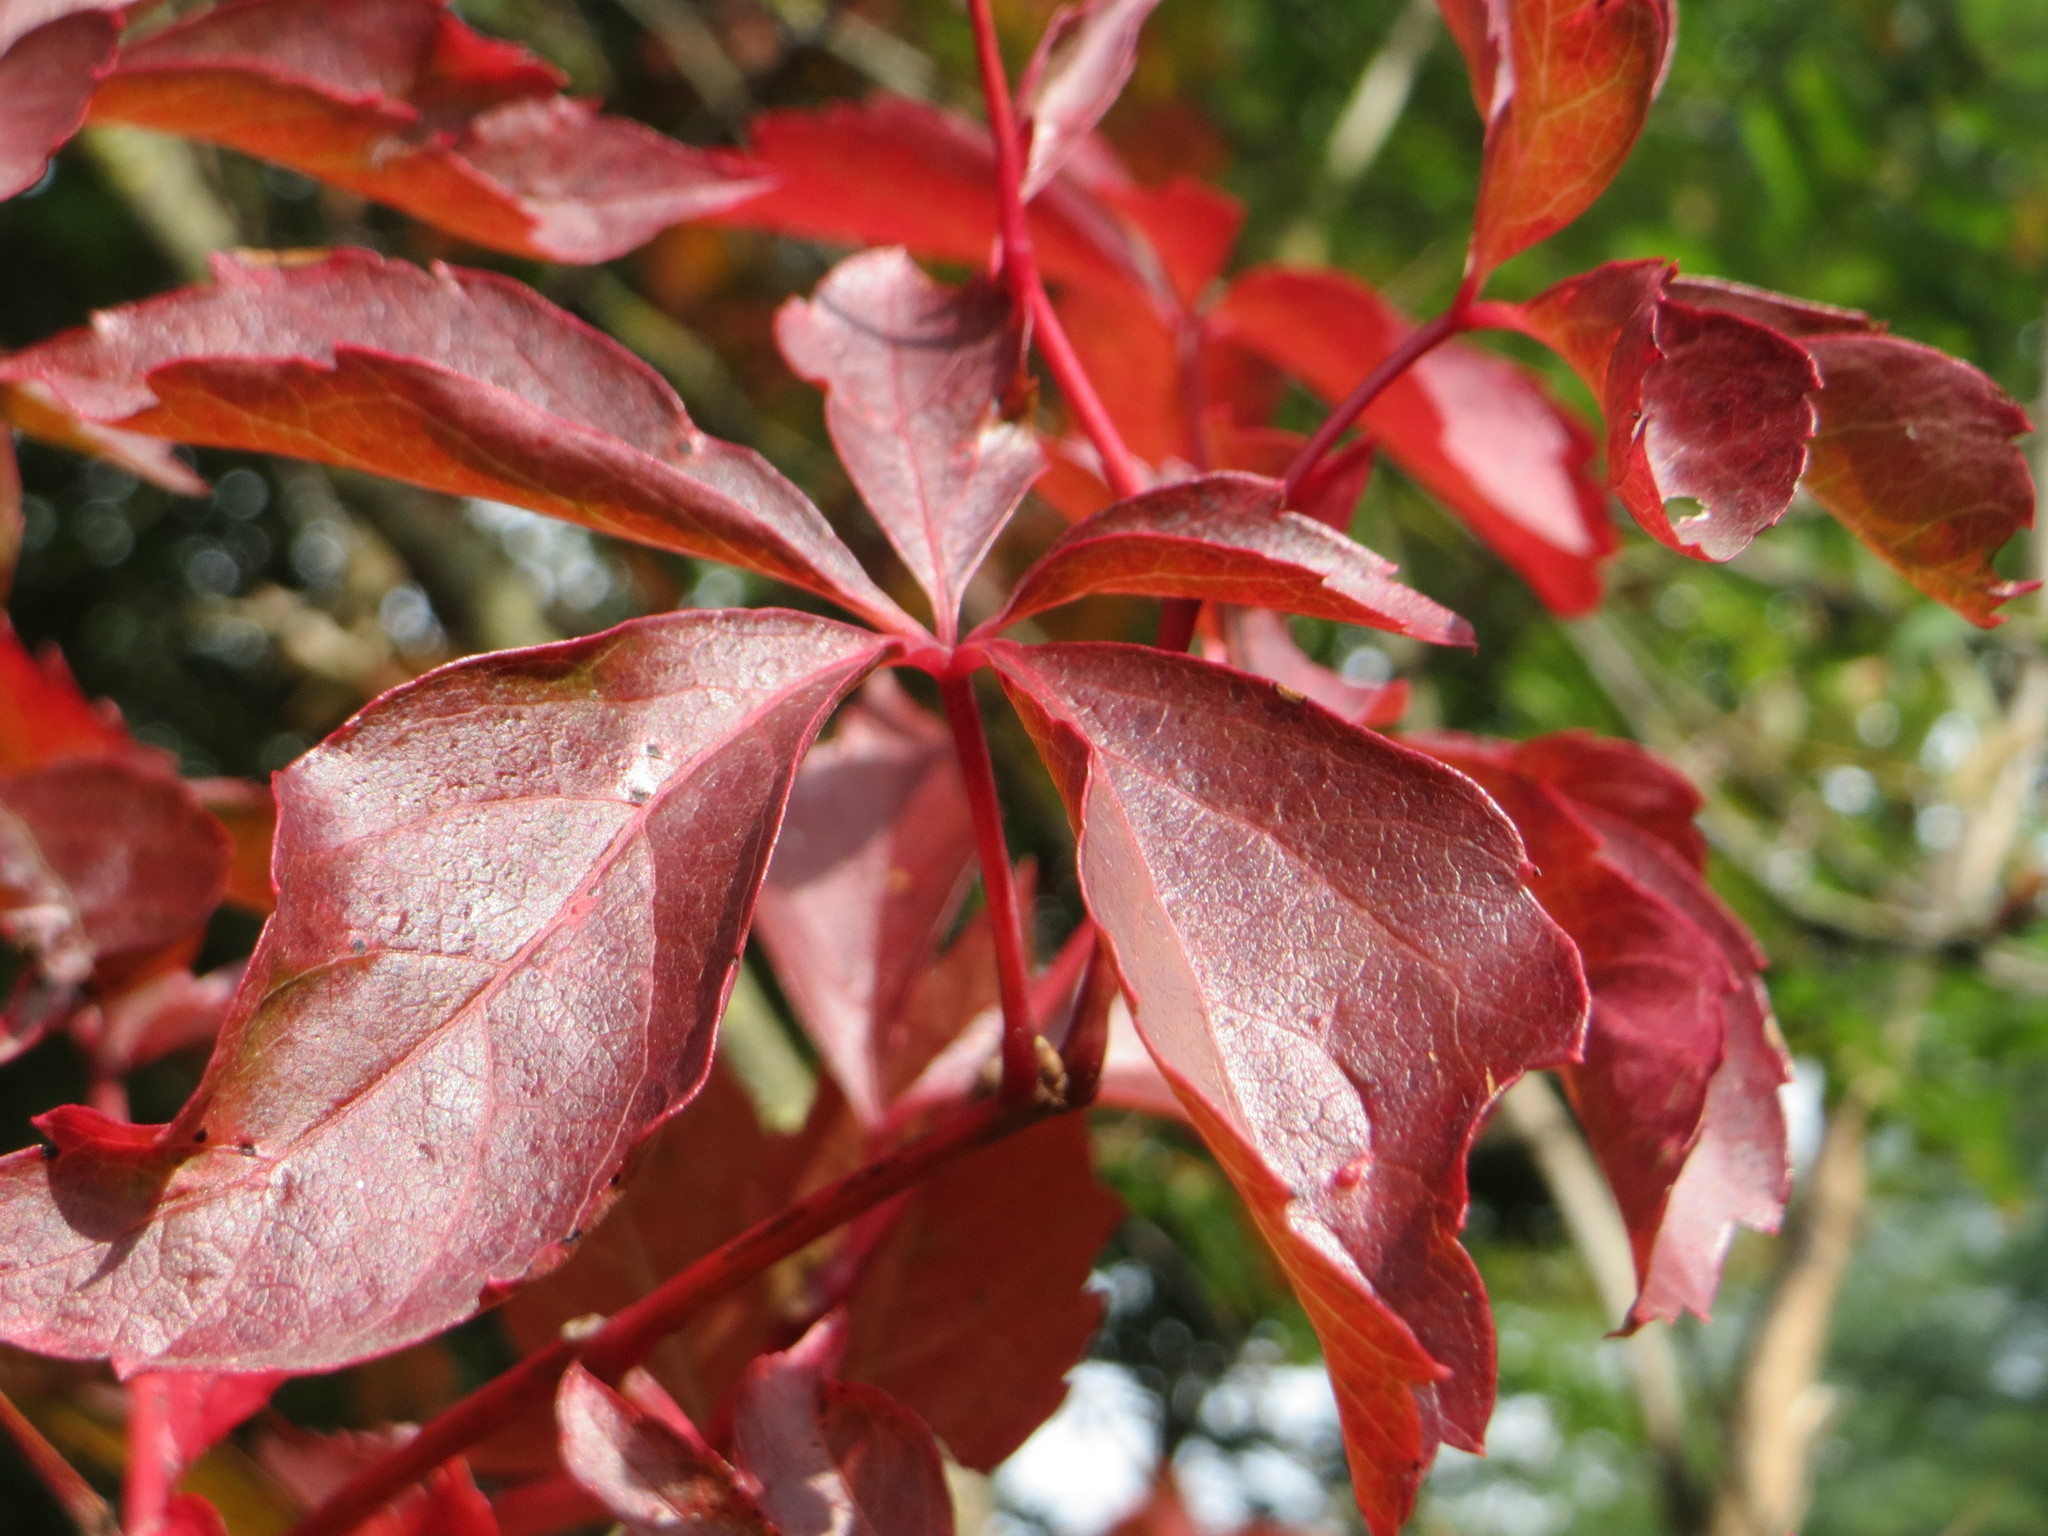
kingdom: Plantae
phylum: Tracheophyta
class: Magnoliopsida
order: Vitales
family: Vitaceae
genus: Parthenocissus
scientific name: Parthenocissus quinquefolia
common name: Virginia-creeper
